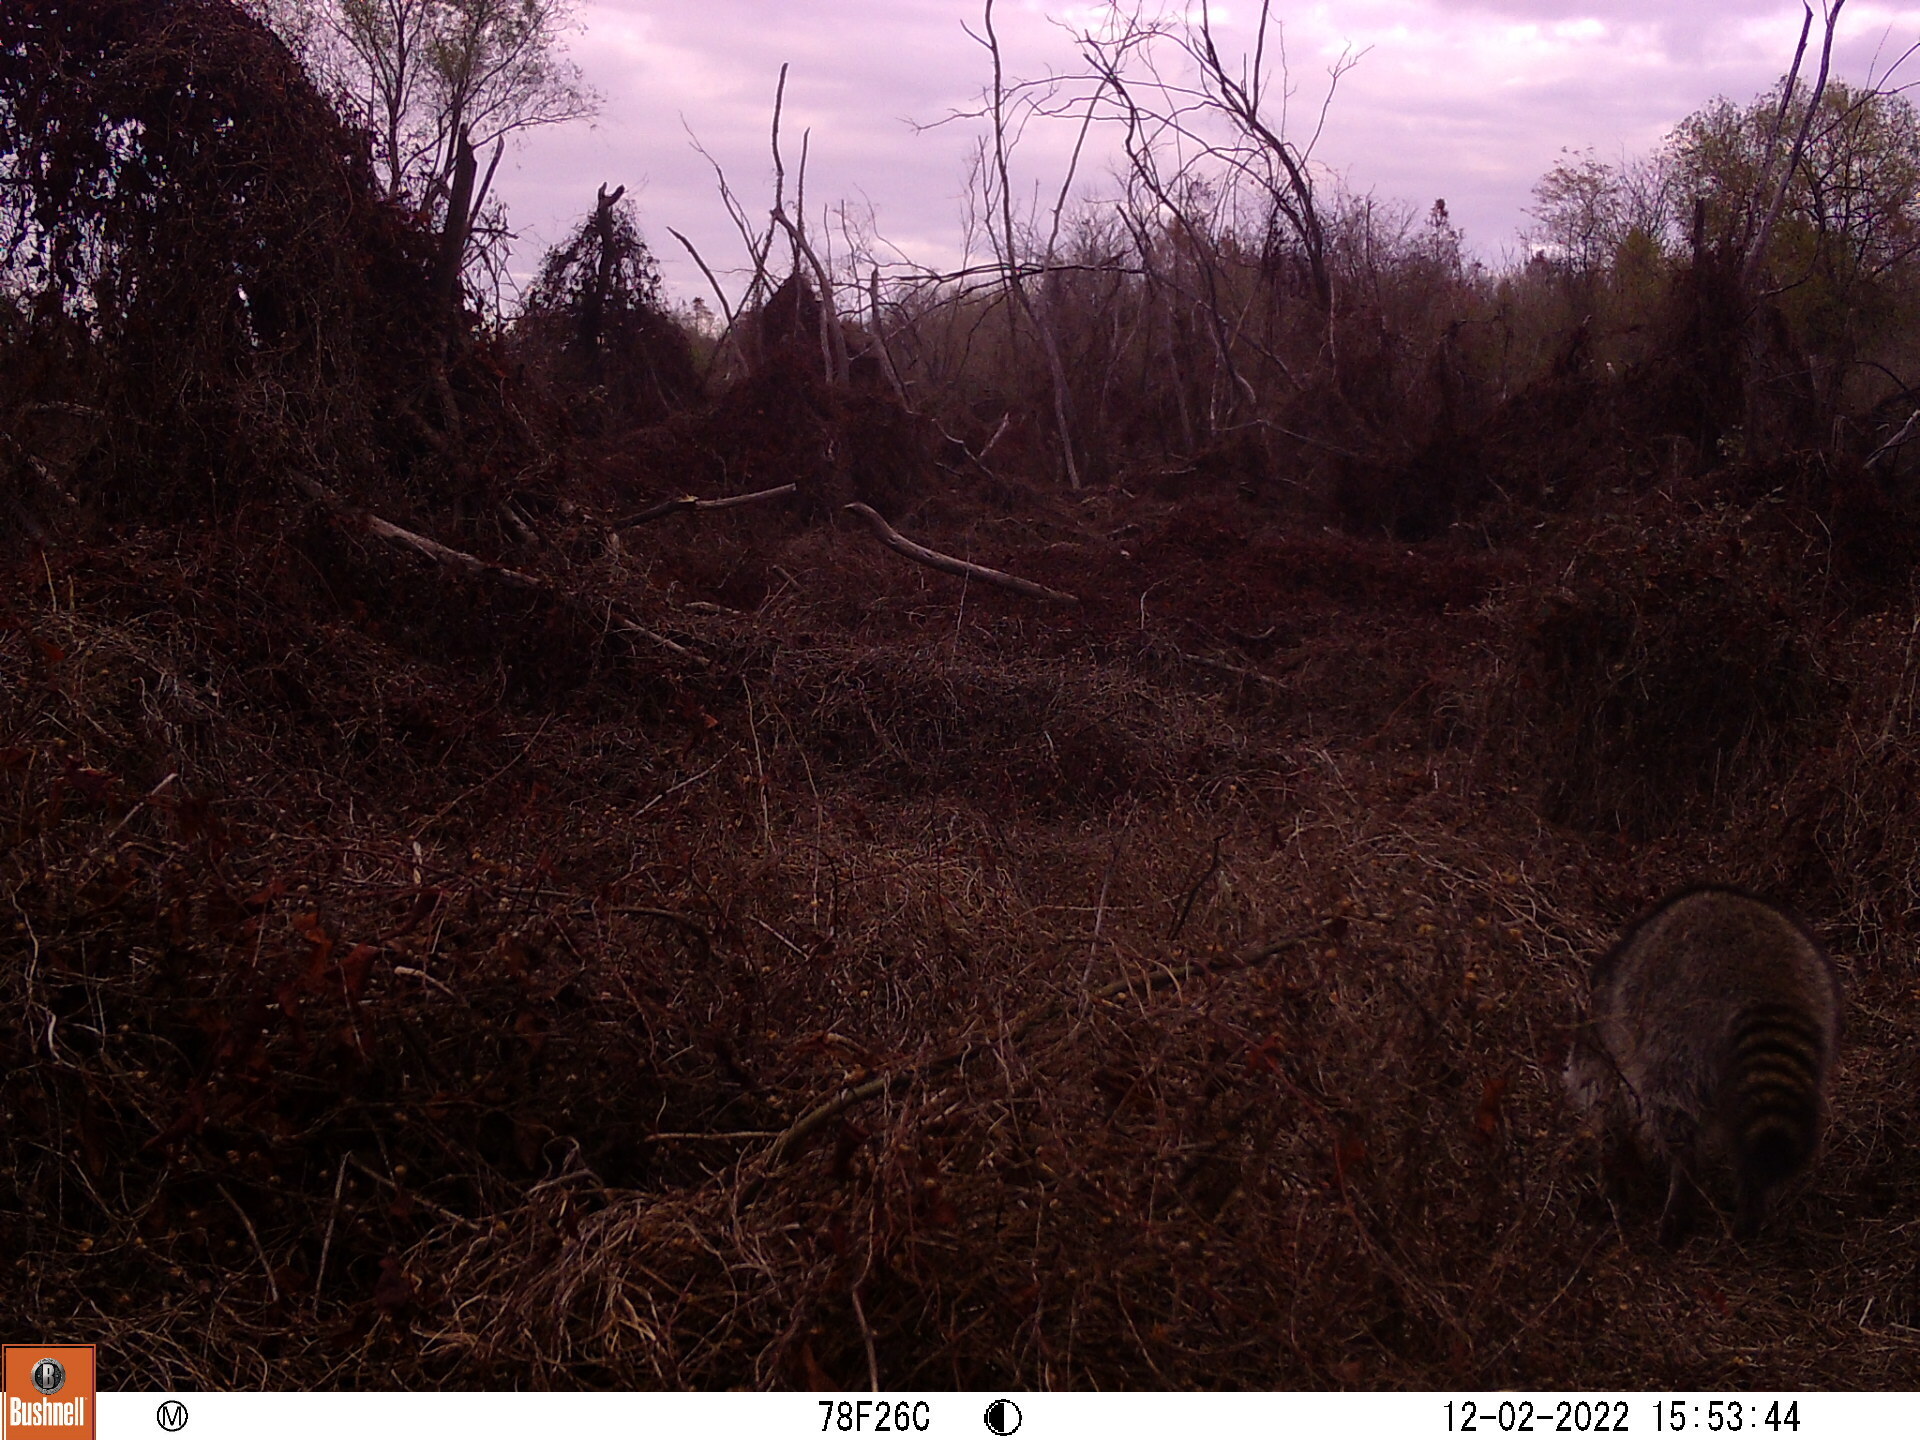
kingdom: Animalia
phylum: Chordata
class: Mammalia
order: Carnivora
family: Procyonidae
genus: Procyon
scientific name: Procyon lotor
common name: Raccoon
